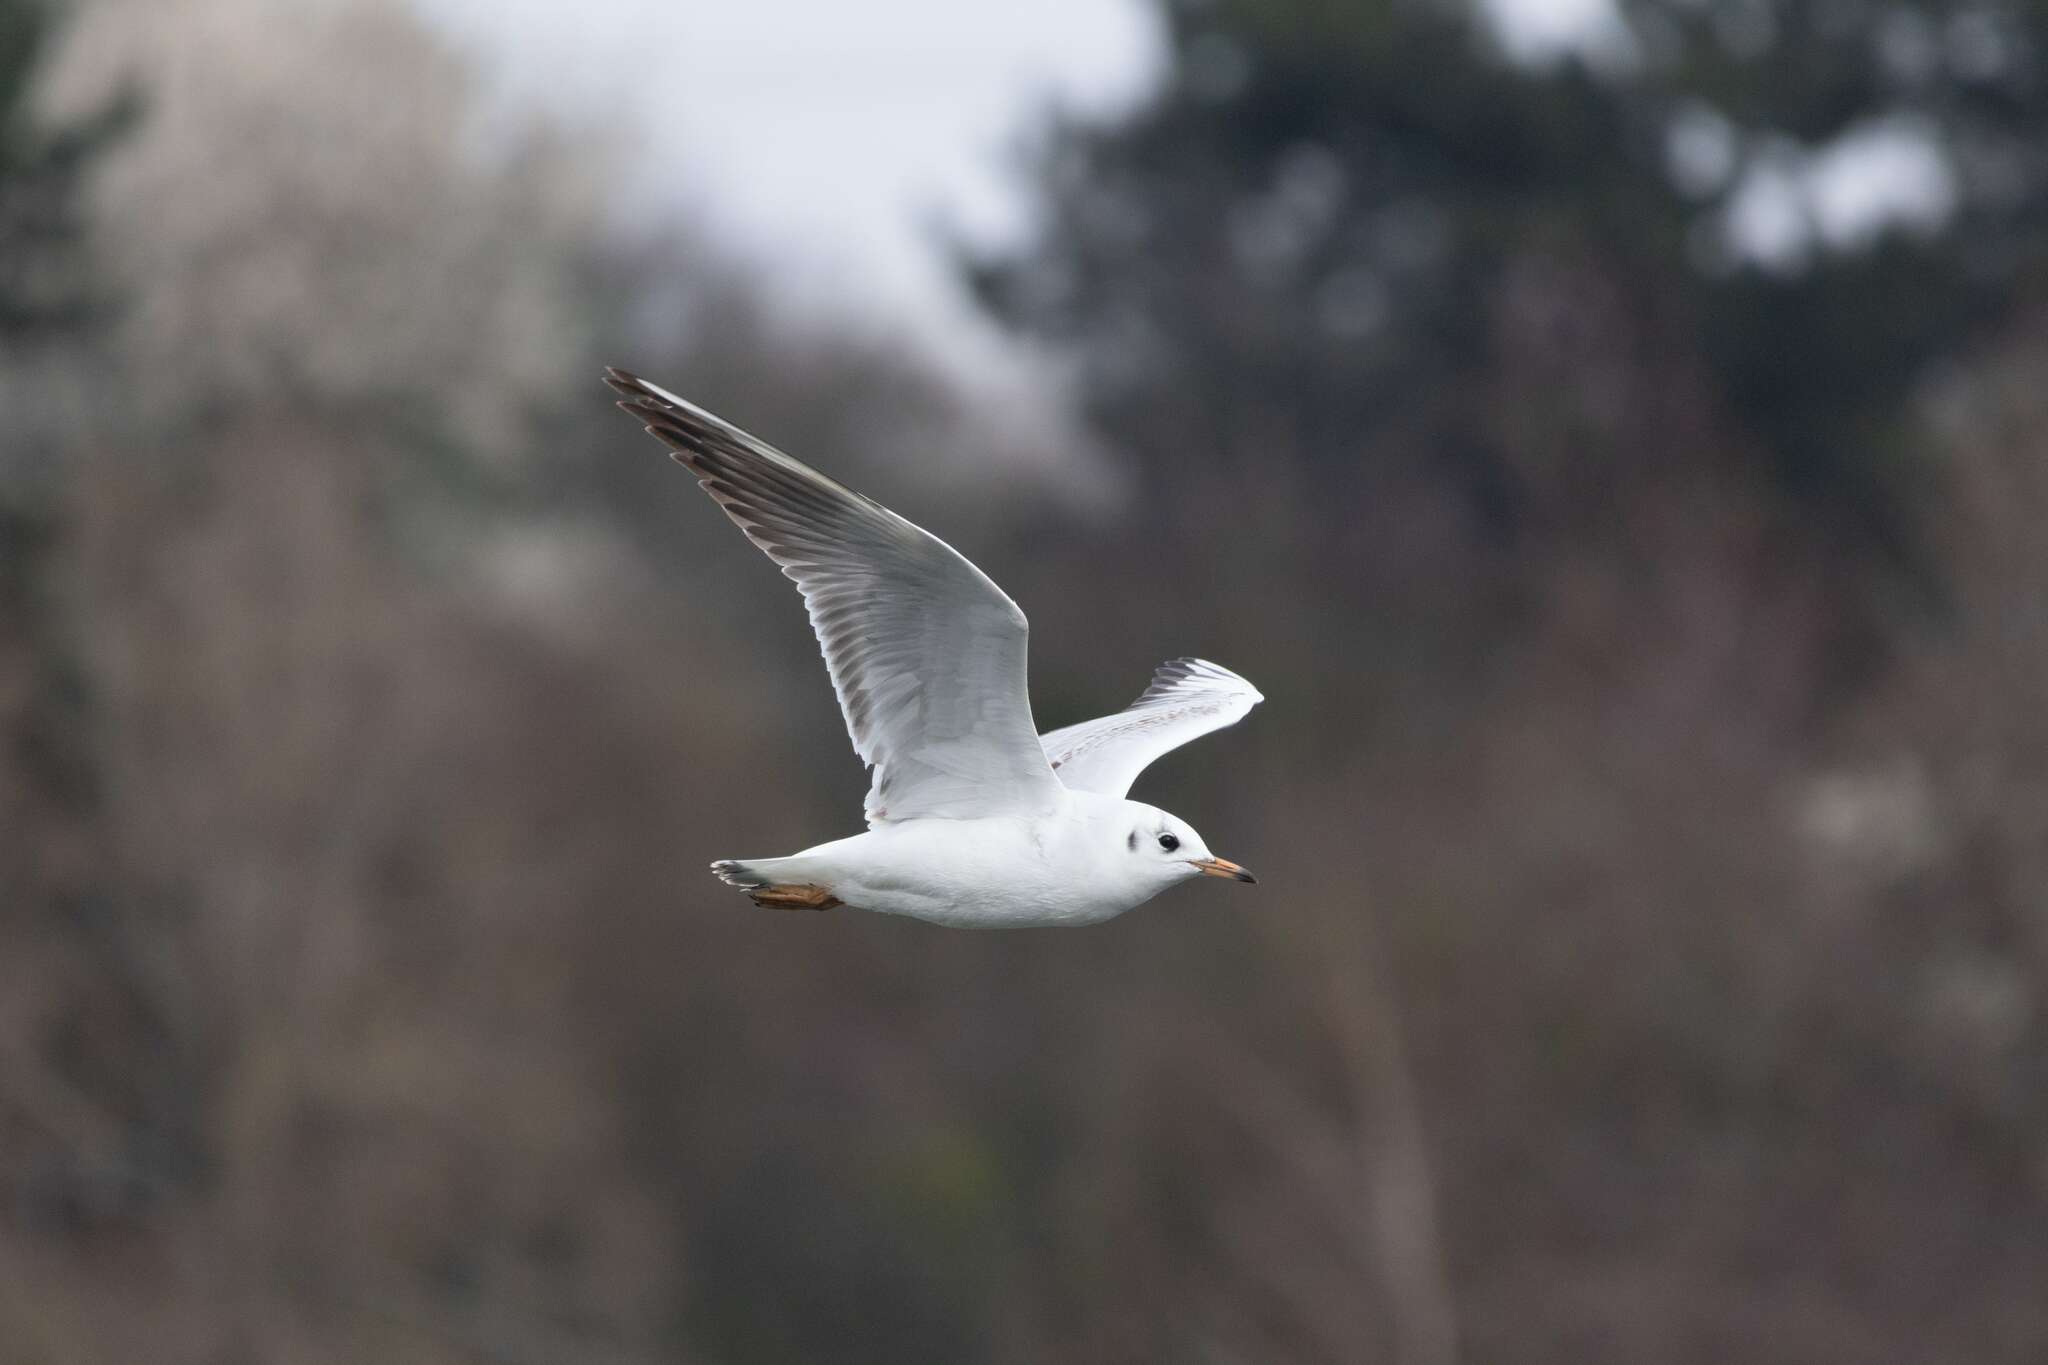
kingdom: Animalia
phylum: Chordata
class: Aves
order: Charadriiformes
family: Laridae
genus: Chroicocephalus
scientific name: Chroicocephalus ridibundus
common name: Black-headed gull
